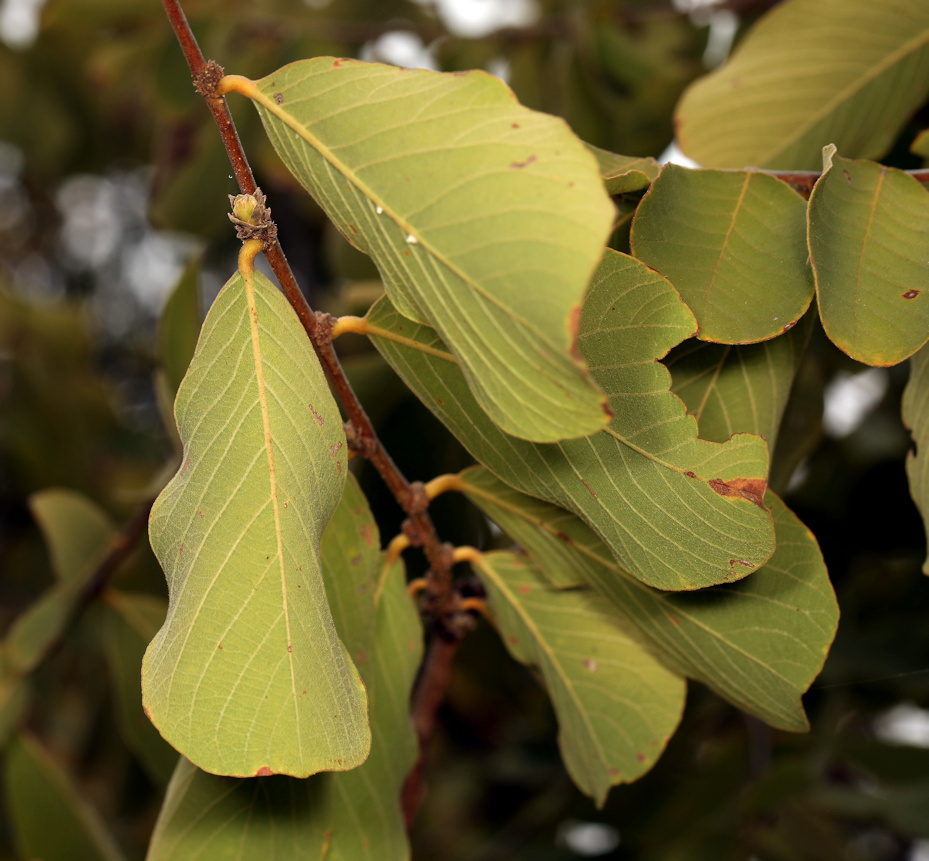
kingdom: Plantae
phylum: Tracheophyta
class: Magnoliopsida
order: Malpighiales
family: Phyllanthaceae
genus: Bridelia
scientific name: Bridelia mollis
